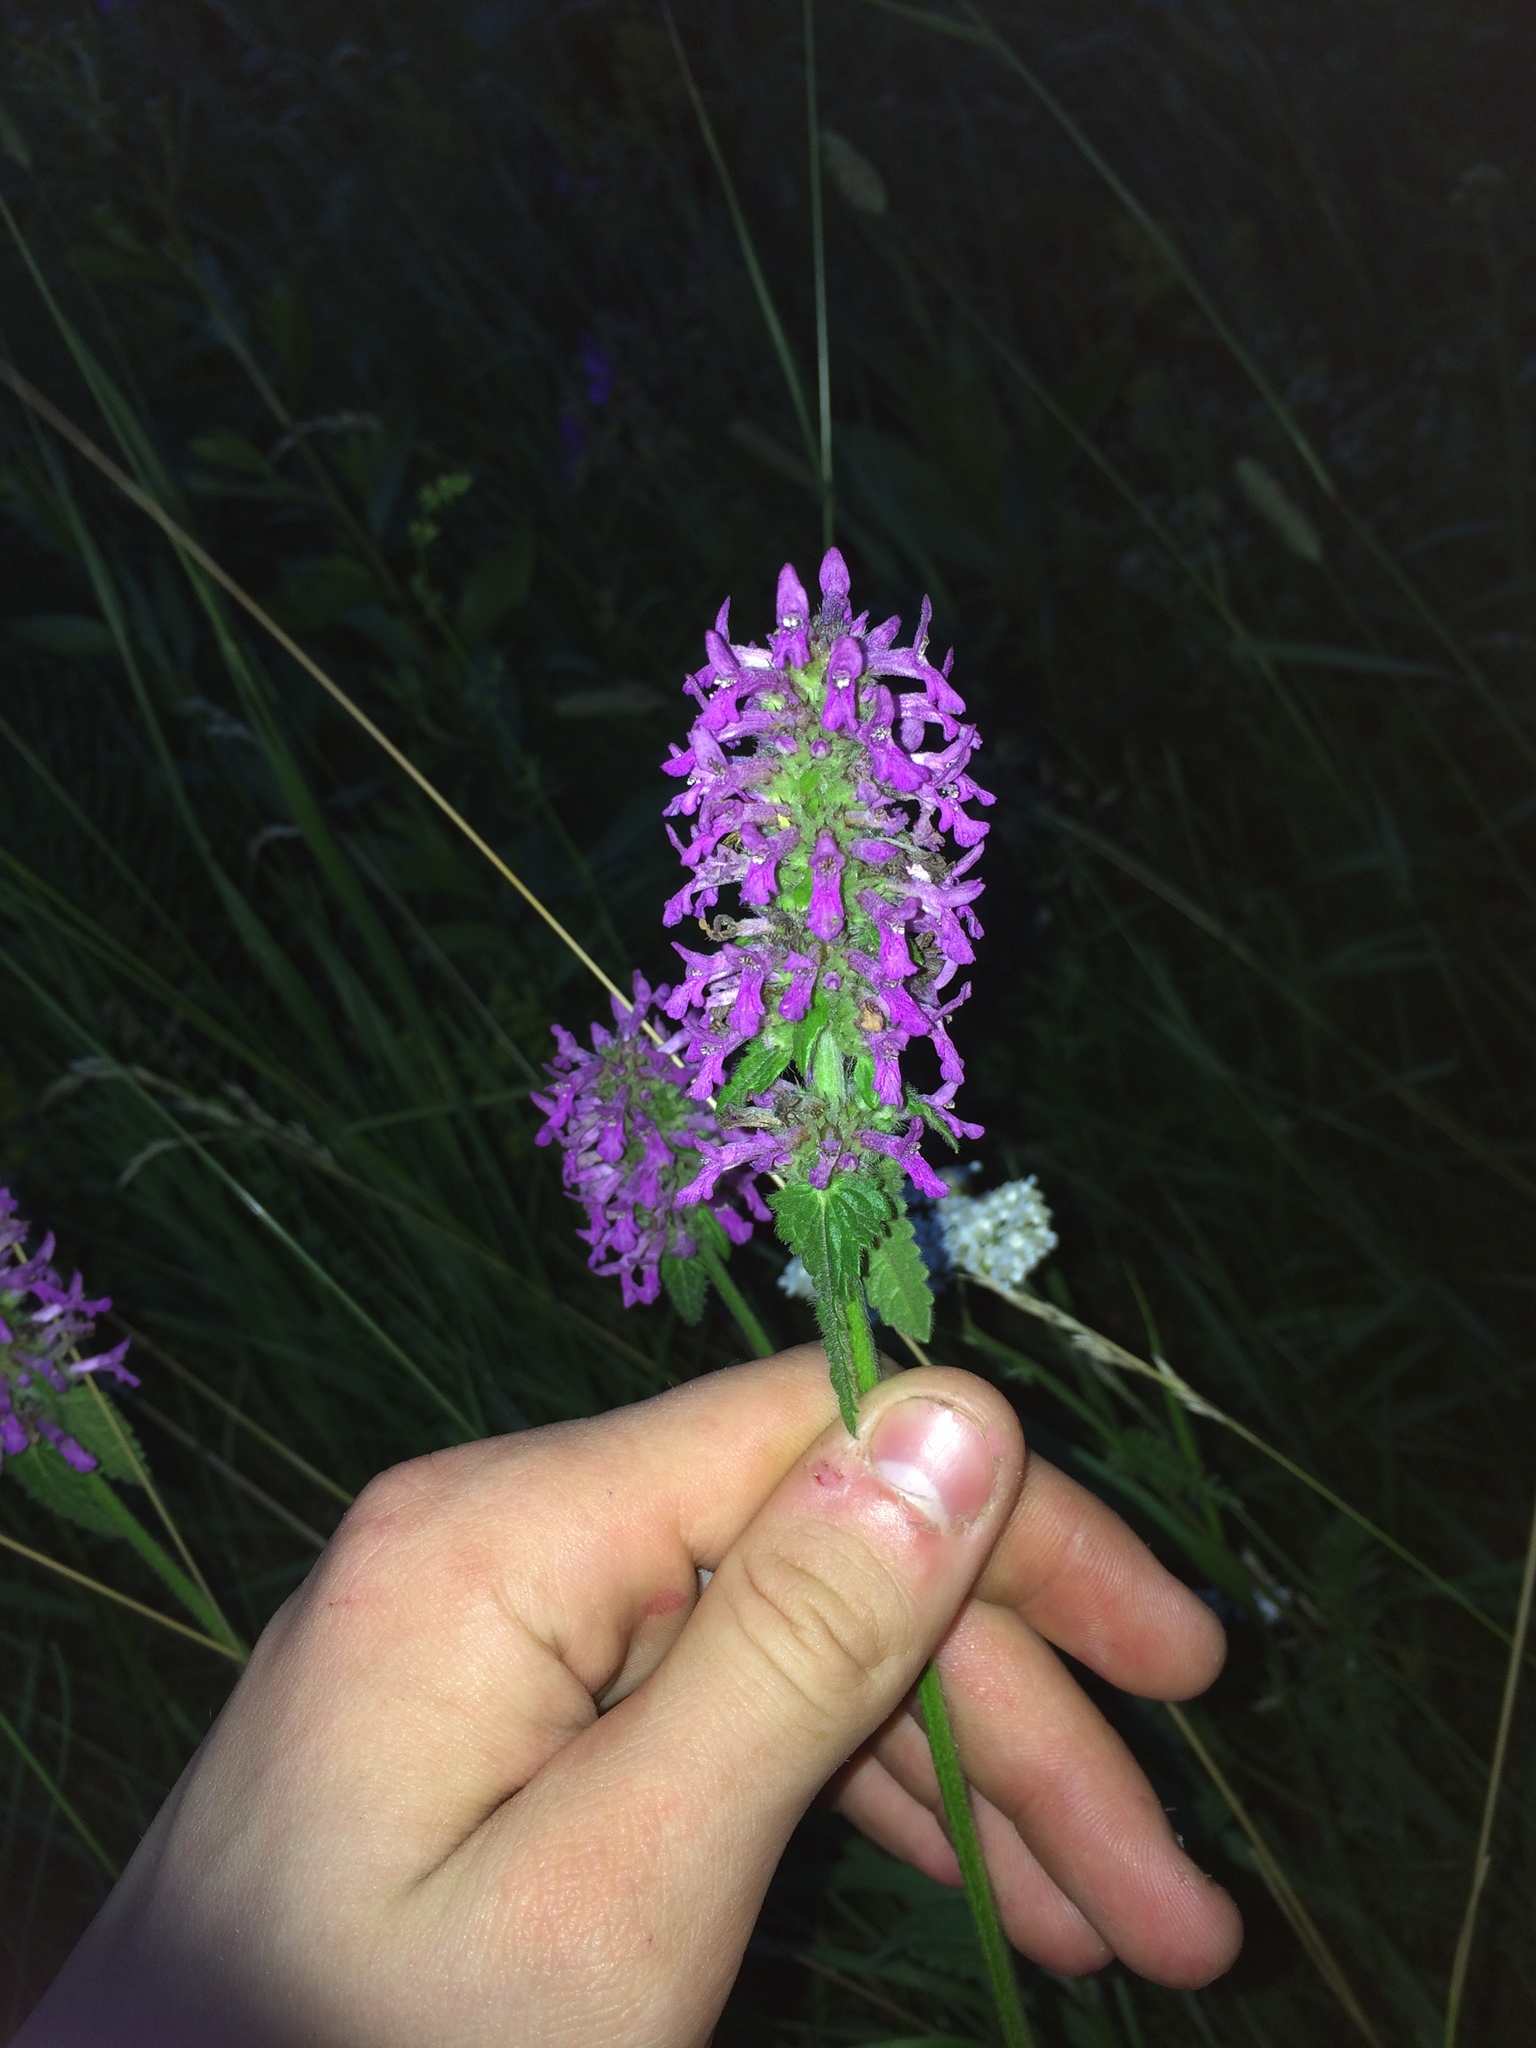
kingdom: Plantae
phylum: Tracheophyta
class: Magnoliopsida
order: Lamiales
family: Lamiaceae
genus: Betonica
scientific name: Betonica officinalis
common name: Bishop's-wort
